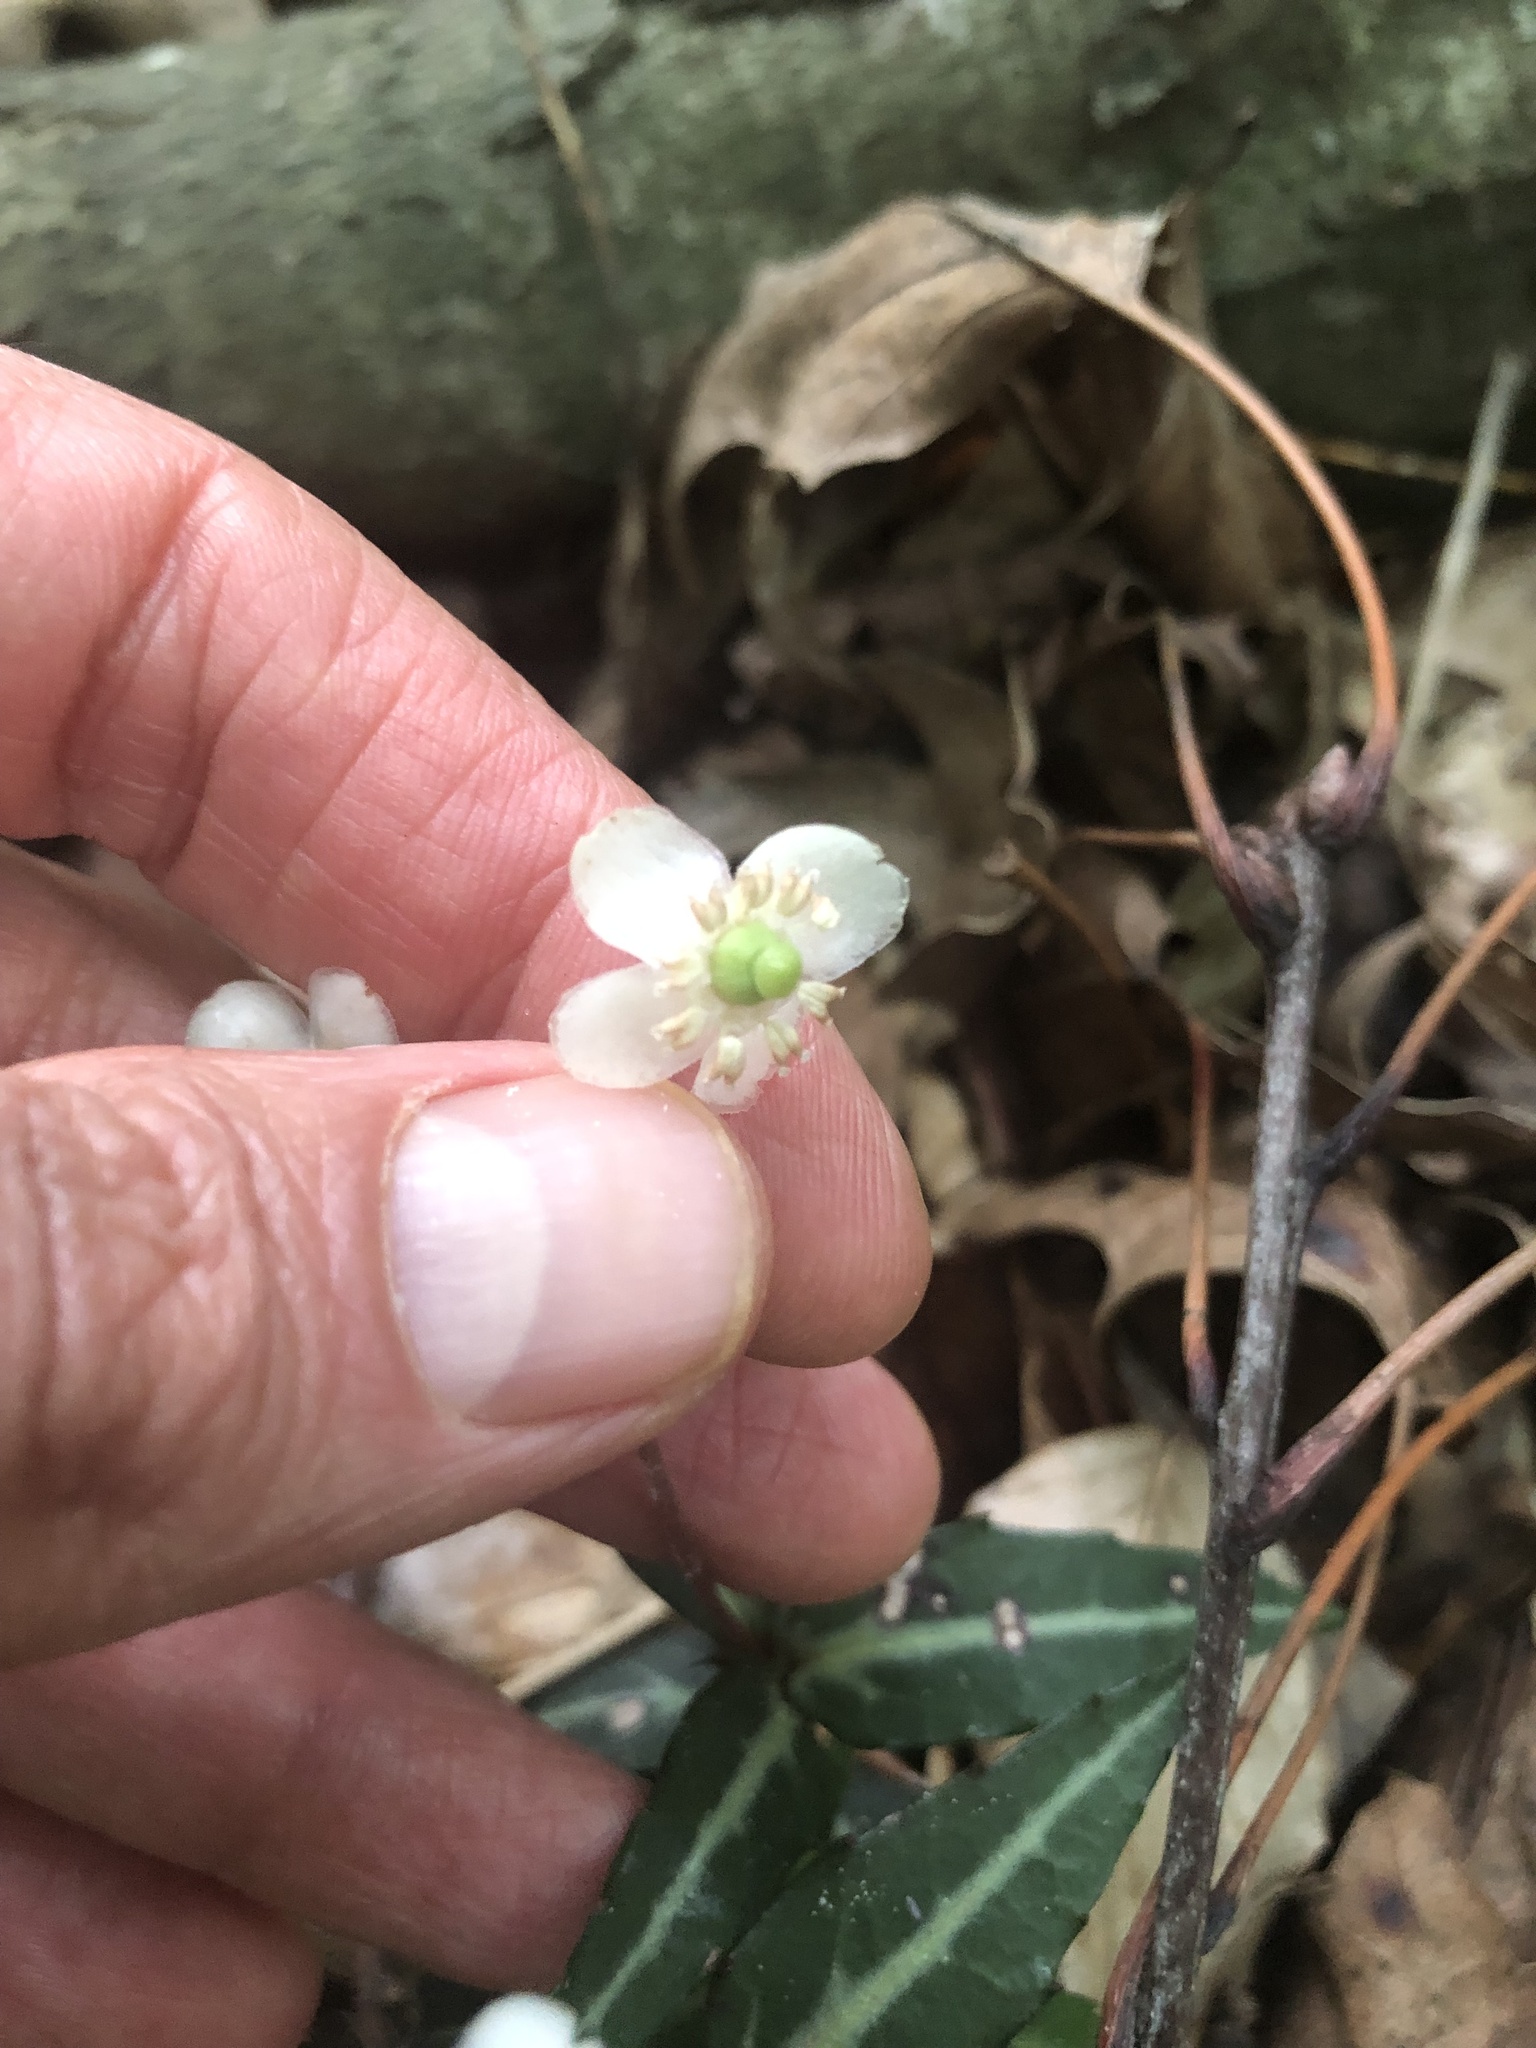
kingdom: Plantae
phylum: Tracheophyta
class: Magnoliopsida
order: Ericales
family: Ericaceae
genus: Chimaphila
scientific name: Chimaphila maculata
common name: Spotted pipsissewa
